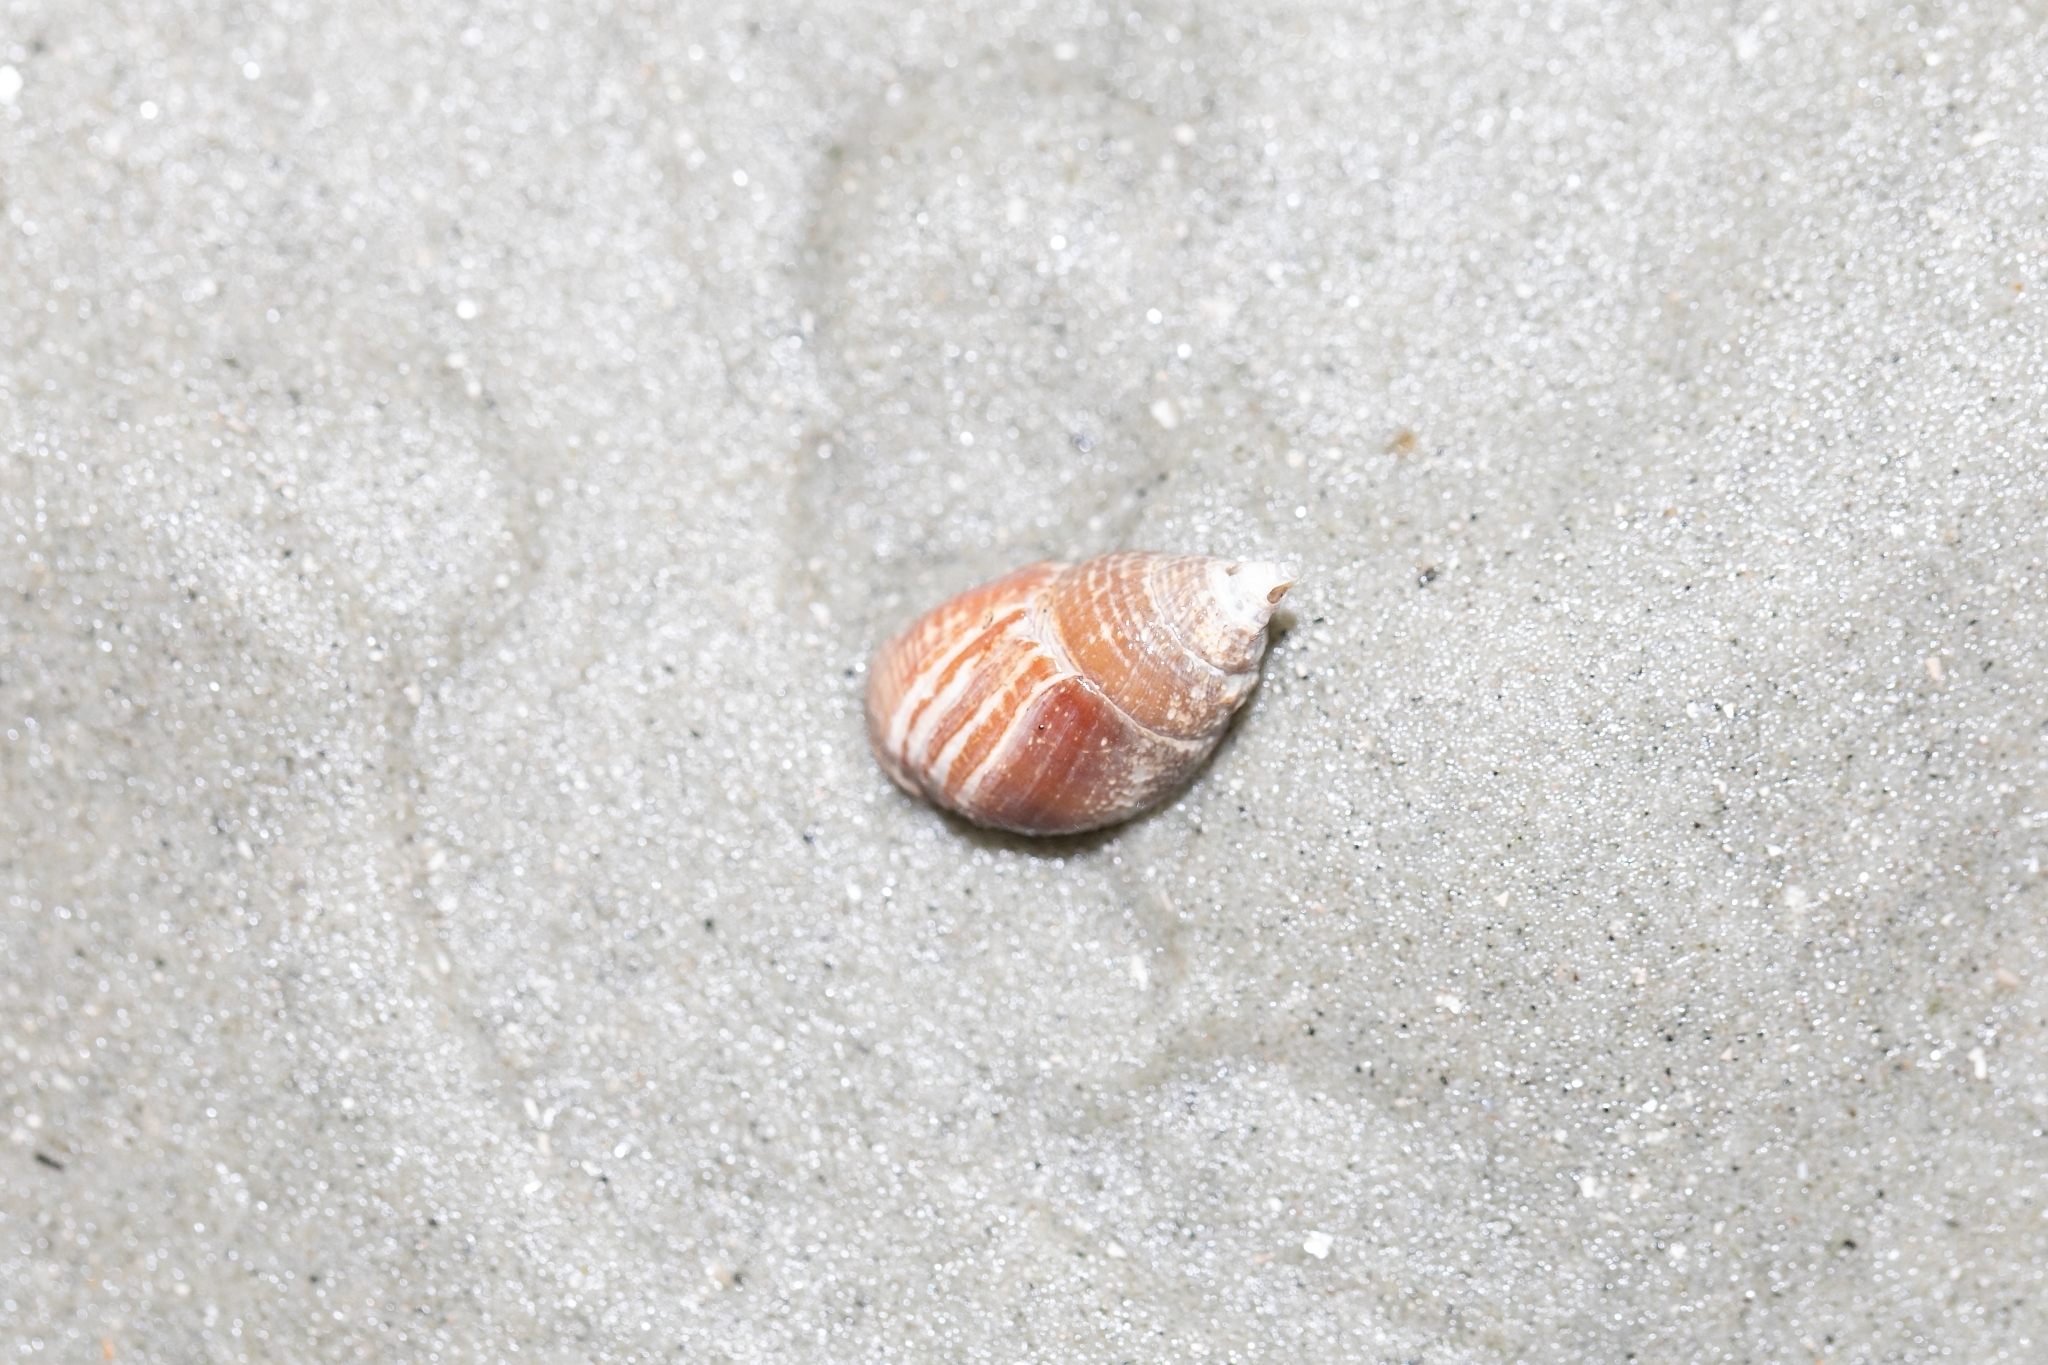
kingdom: Animalia
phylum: Arthropoda
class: Malacostraca
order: Decapoda
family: Paguridae
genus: Pagurus
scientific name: Pagurus longicarpus
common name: Long-armed hermit crab
